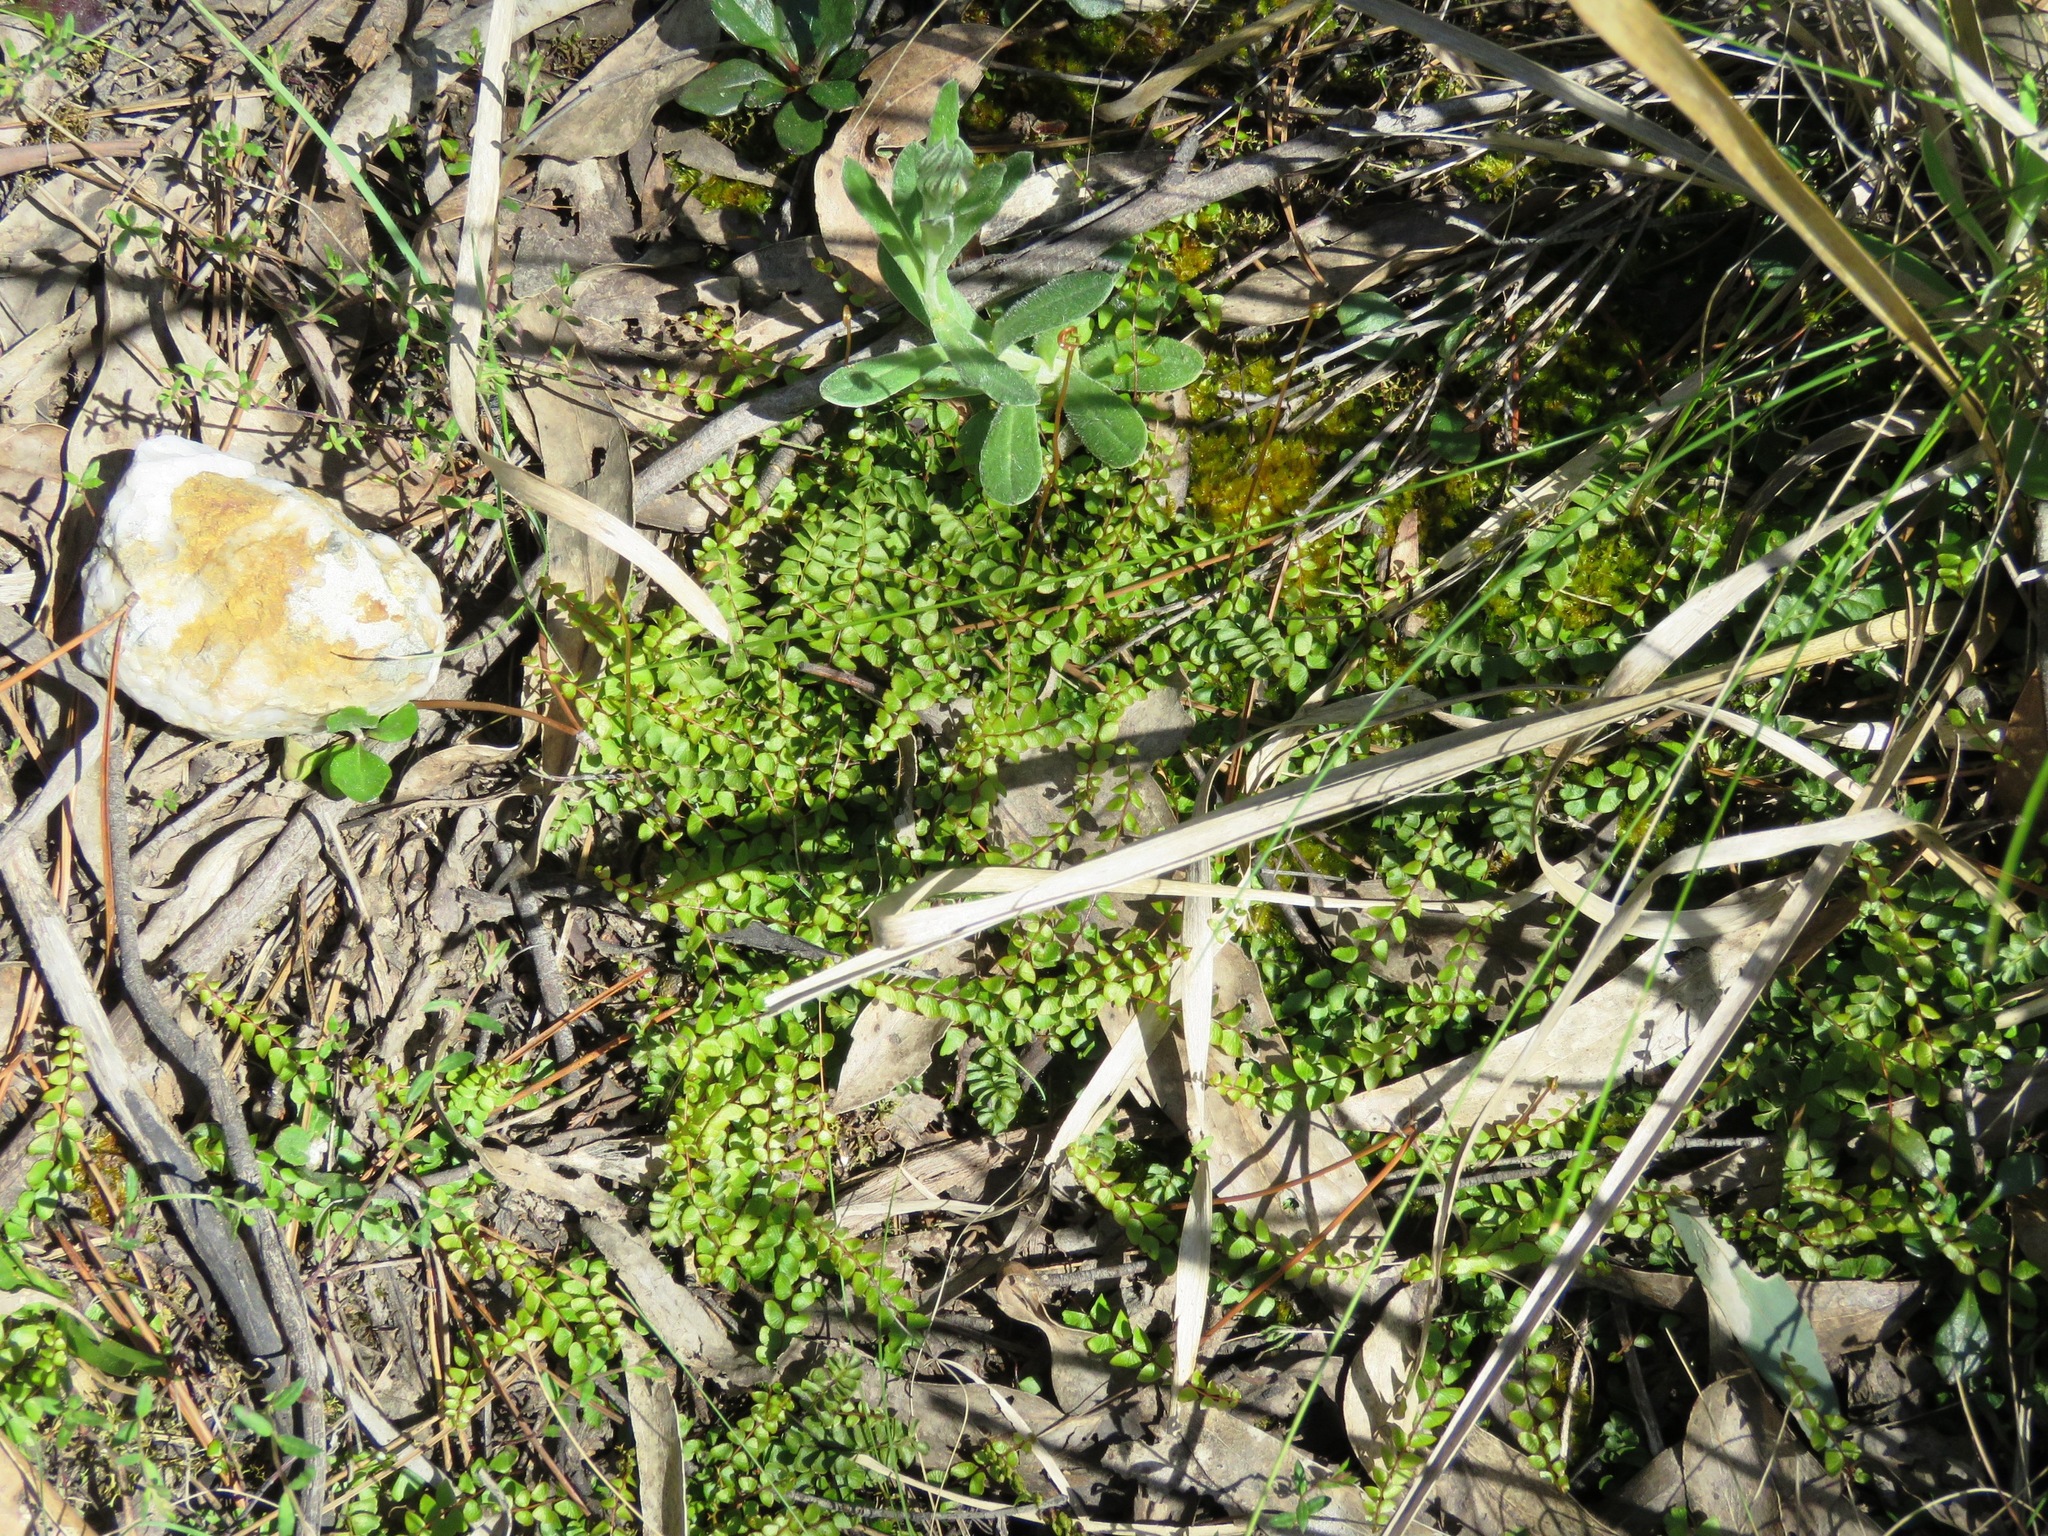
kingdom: Plantae
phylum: Tracheophyta
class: Polypodiopsida
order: Polypodiales
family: Lindsaeaceae
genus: Lindsaea
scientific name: Lindsaea linearis
